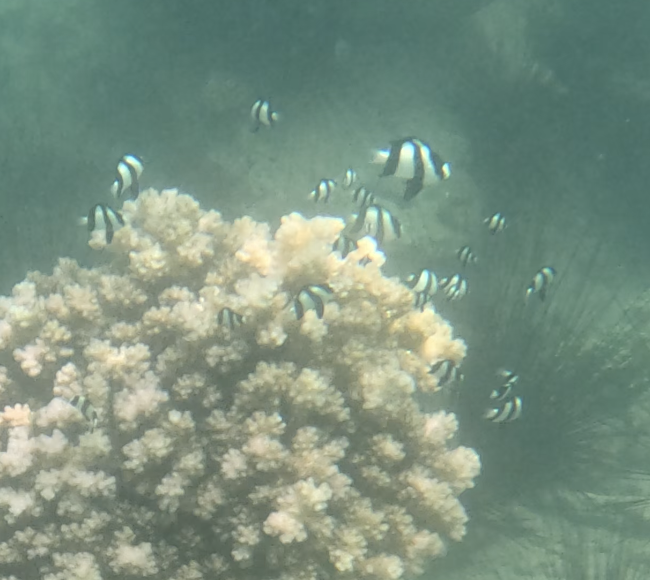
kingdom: Animalia
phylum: Chordata
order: Perciformes
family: Pomacentridae
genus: Dascyllus
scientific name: Dascyllus aruanus
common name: Humbug dascyllus
